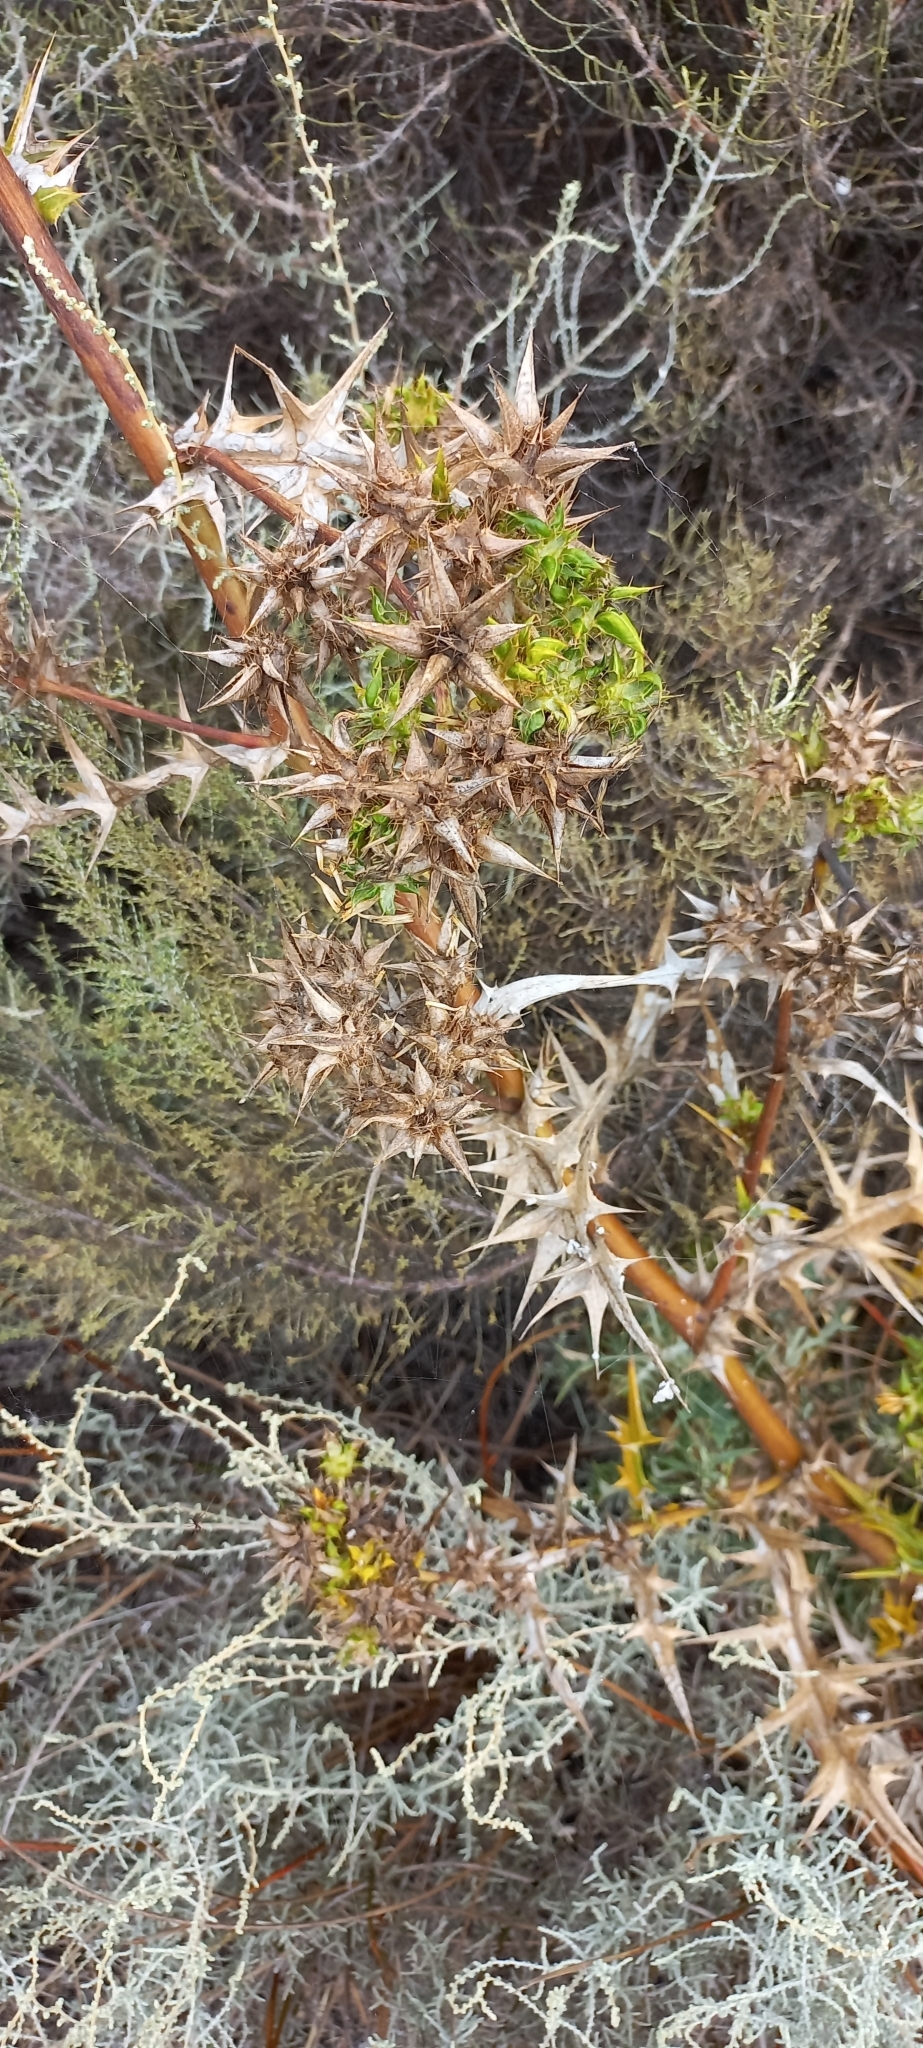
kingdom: Plantae
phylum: Tracheophyta
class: Magnoliopsida
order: Asterales
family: Asteraceae
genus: Berkheya
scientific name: Berkheya rigida
